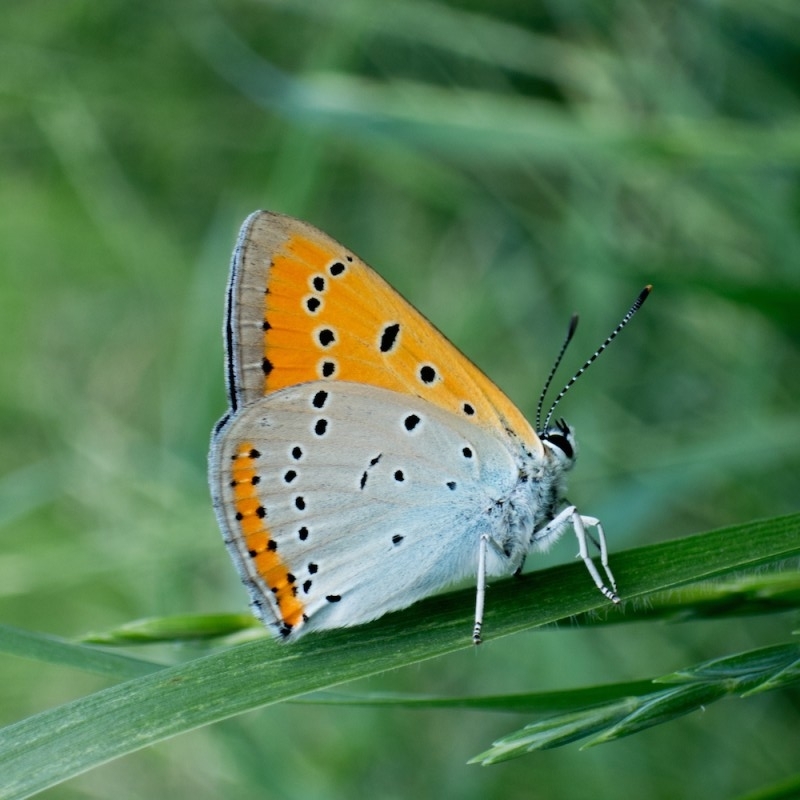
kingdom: Animalia
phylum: Arthropoda
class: Insecta
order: Lepidoptera
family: Lycaenidae
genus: Lycaena
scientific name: Lycaena dispar
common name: Large copper
